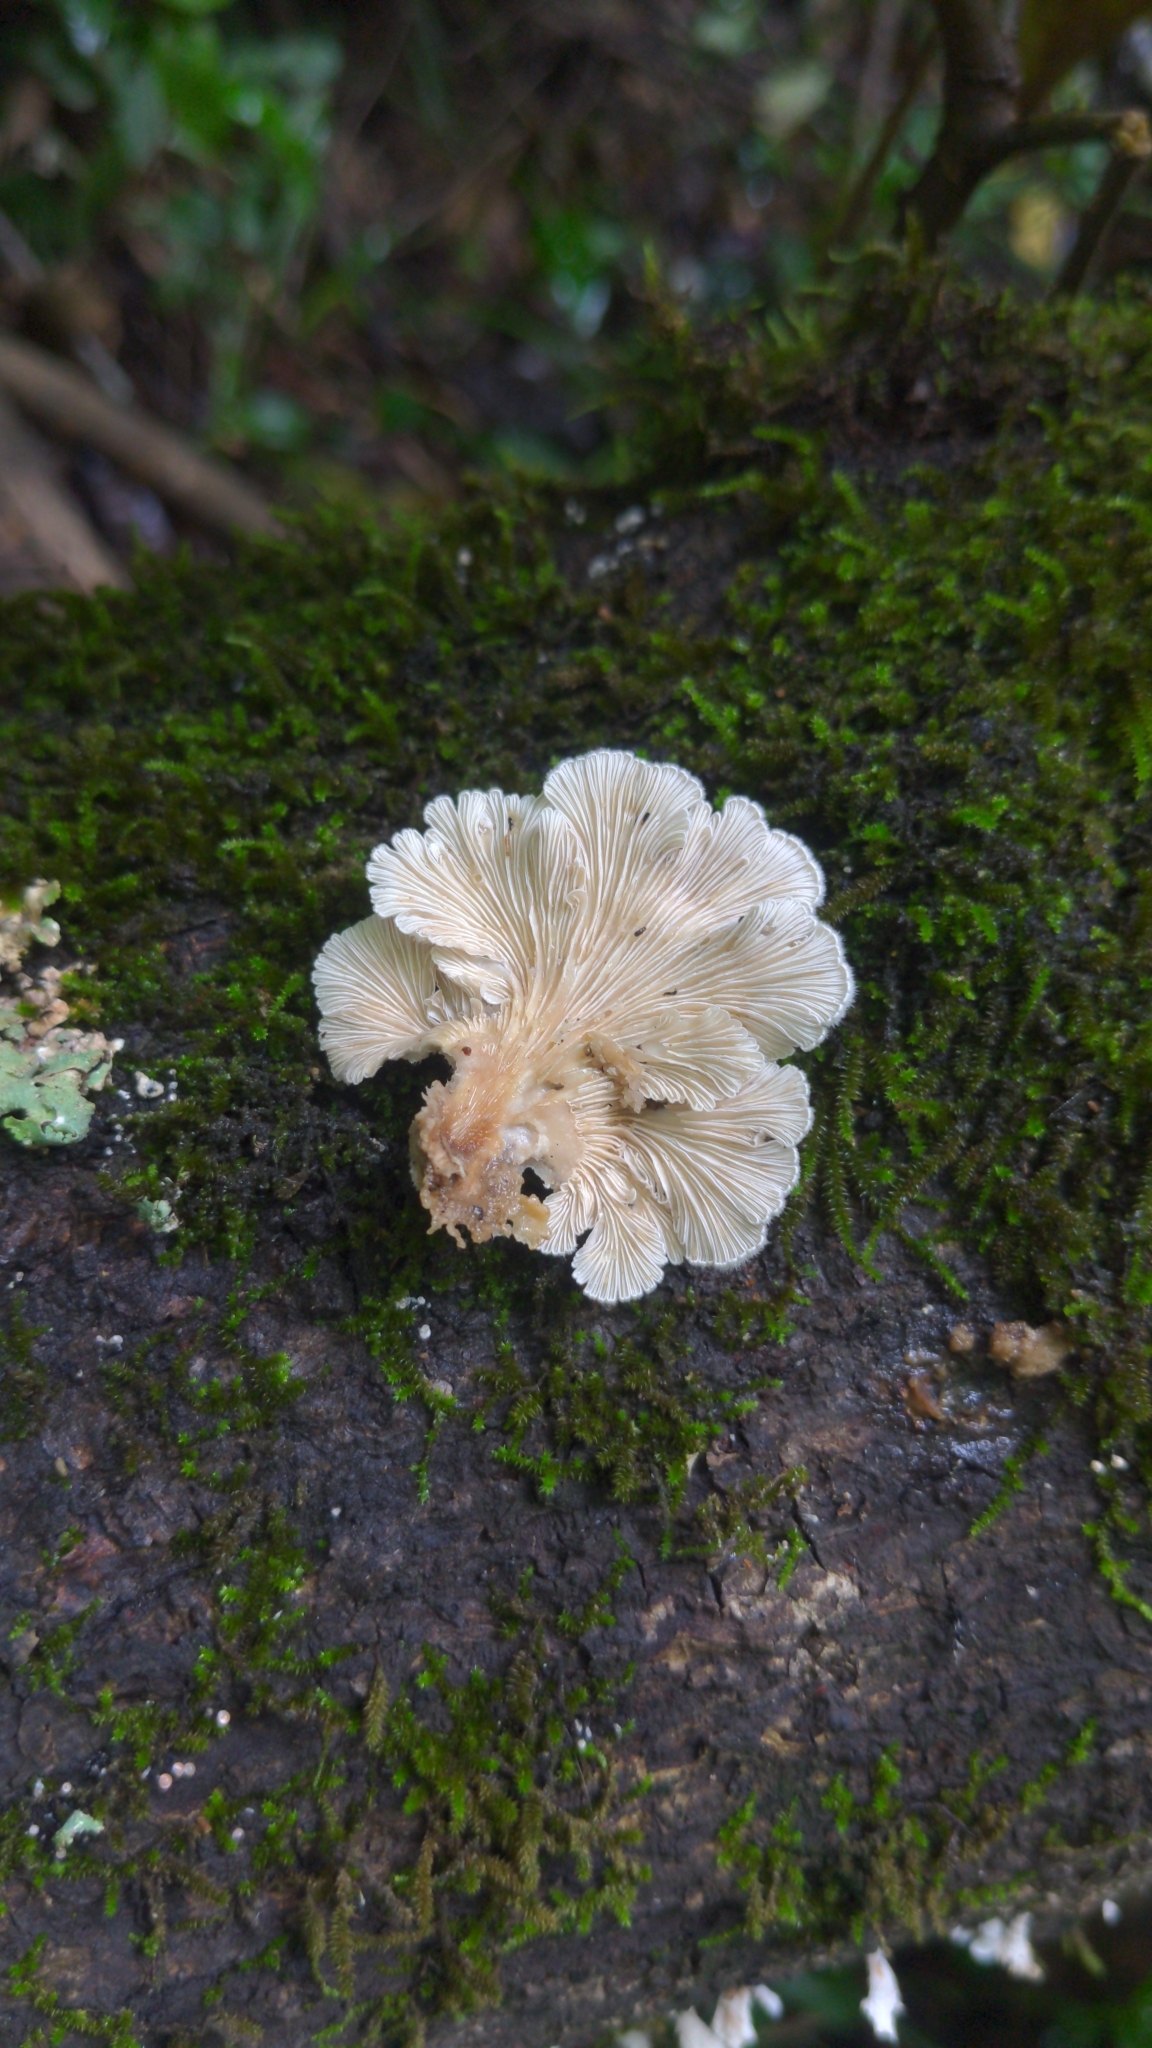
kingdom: Fungi
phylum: Basidiomycota
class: Agaricomycetes
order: Agaricales
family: Schizophyllaceae
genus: Schizophyllum
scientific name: Schizophyllum commune
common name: Common porecrust
